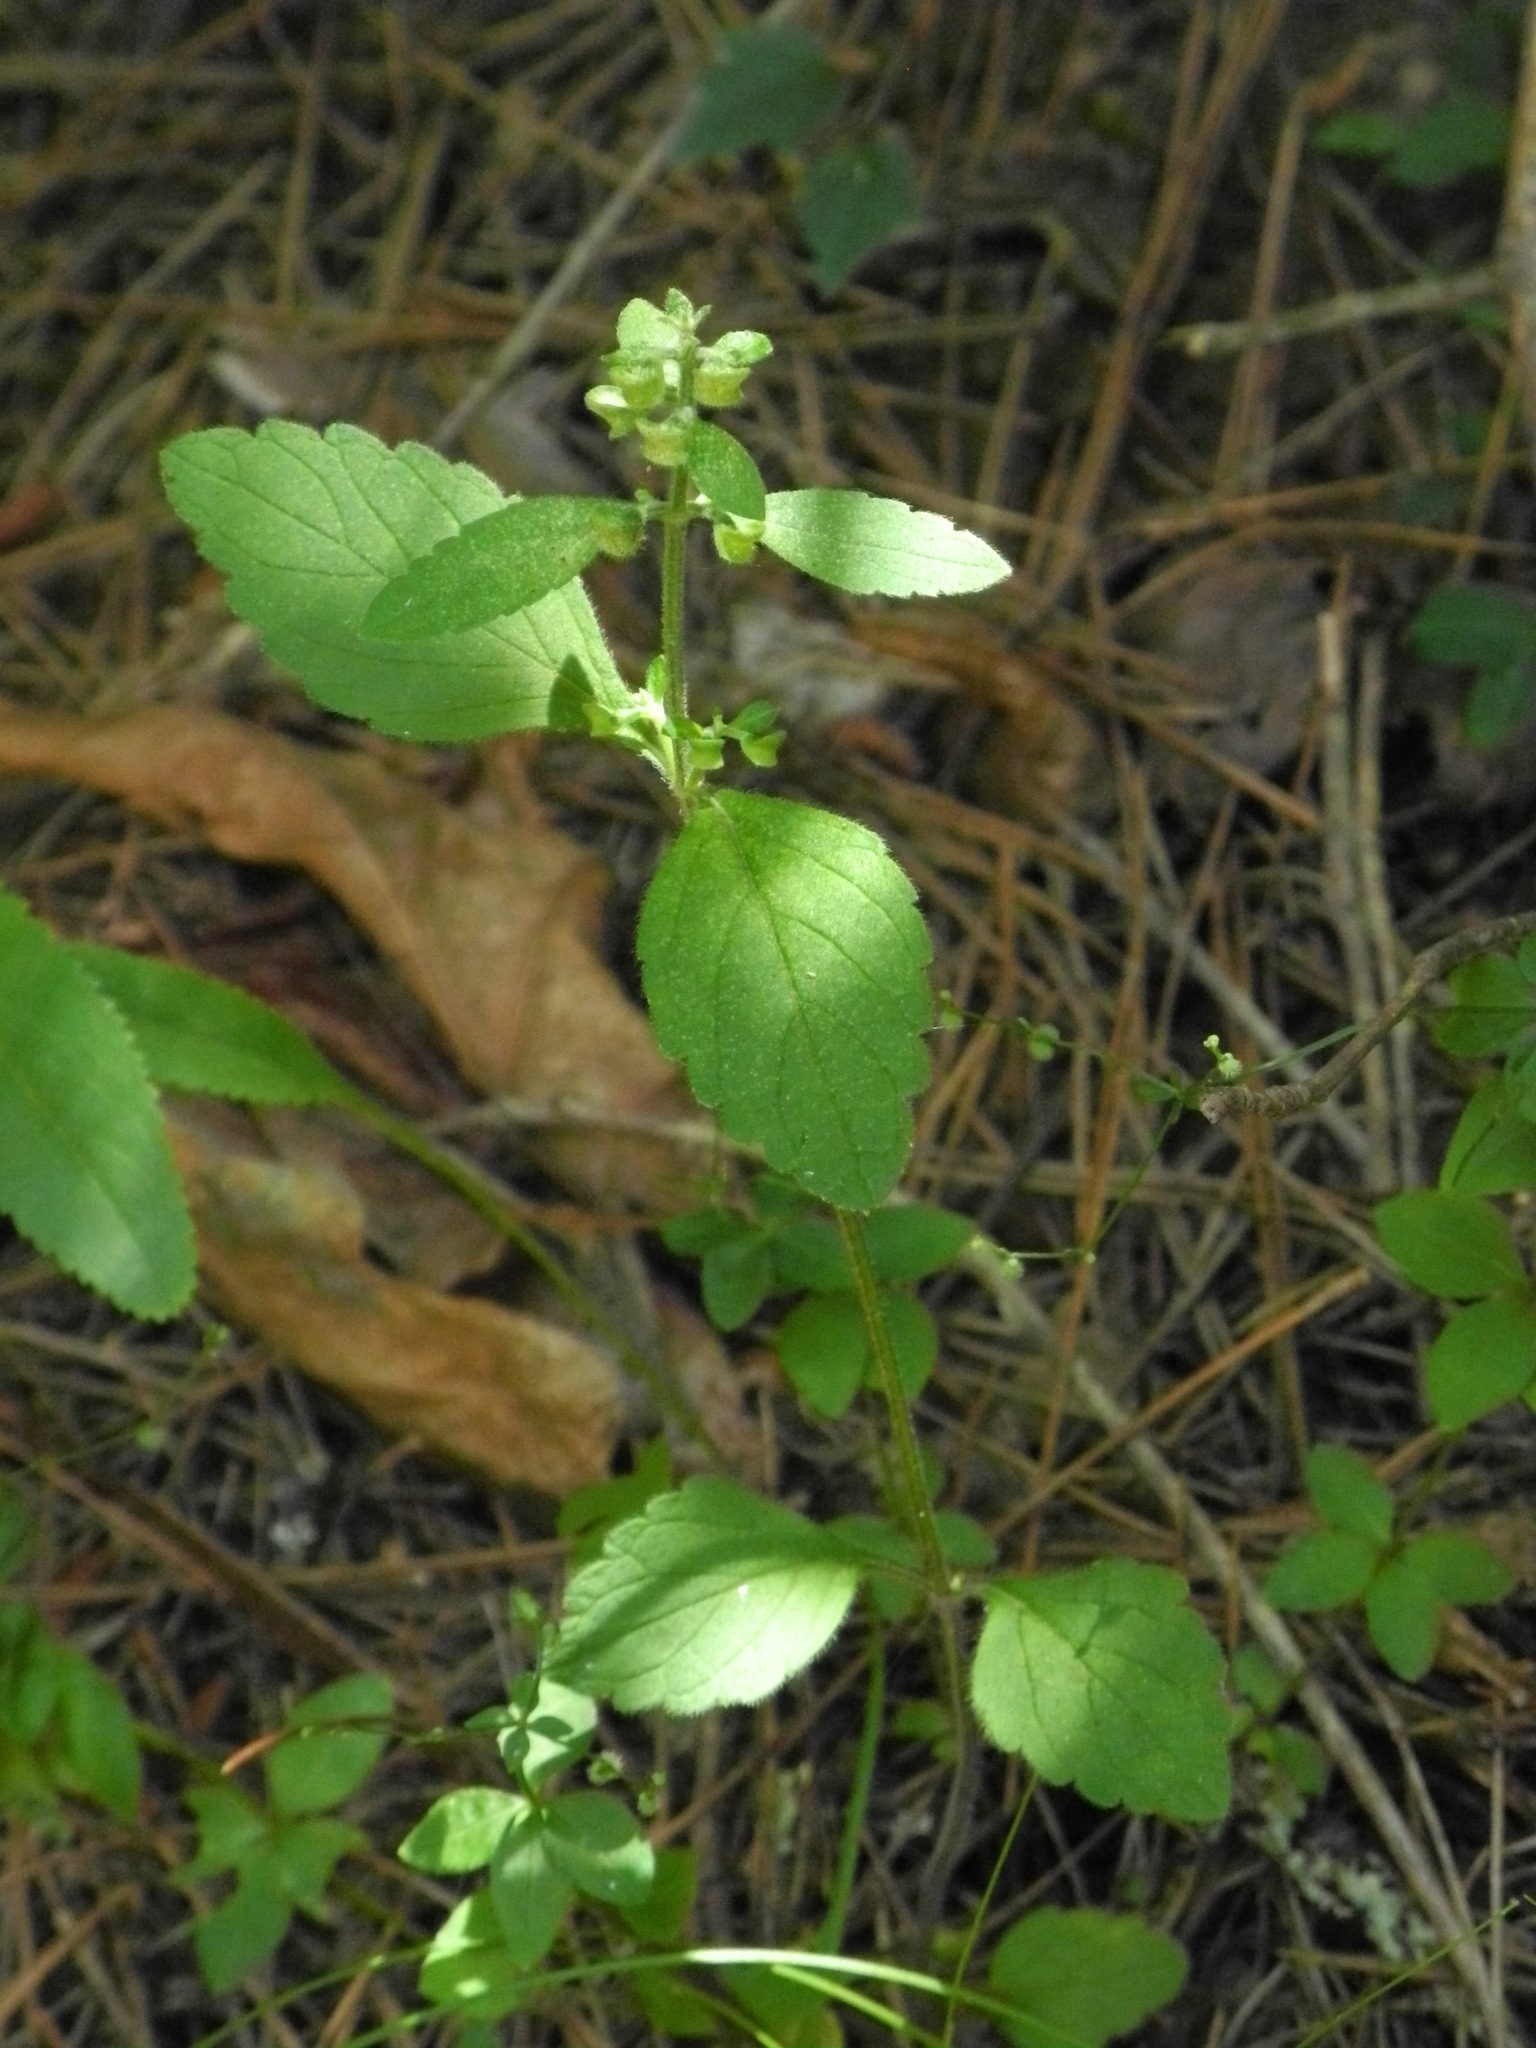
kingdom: Plantae
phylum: Tracheophyta
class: Magnoliopsida
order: Lamiales
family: Lamiaceae
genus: Scutellaria
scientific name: Scutellaria elliptica
